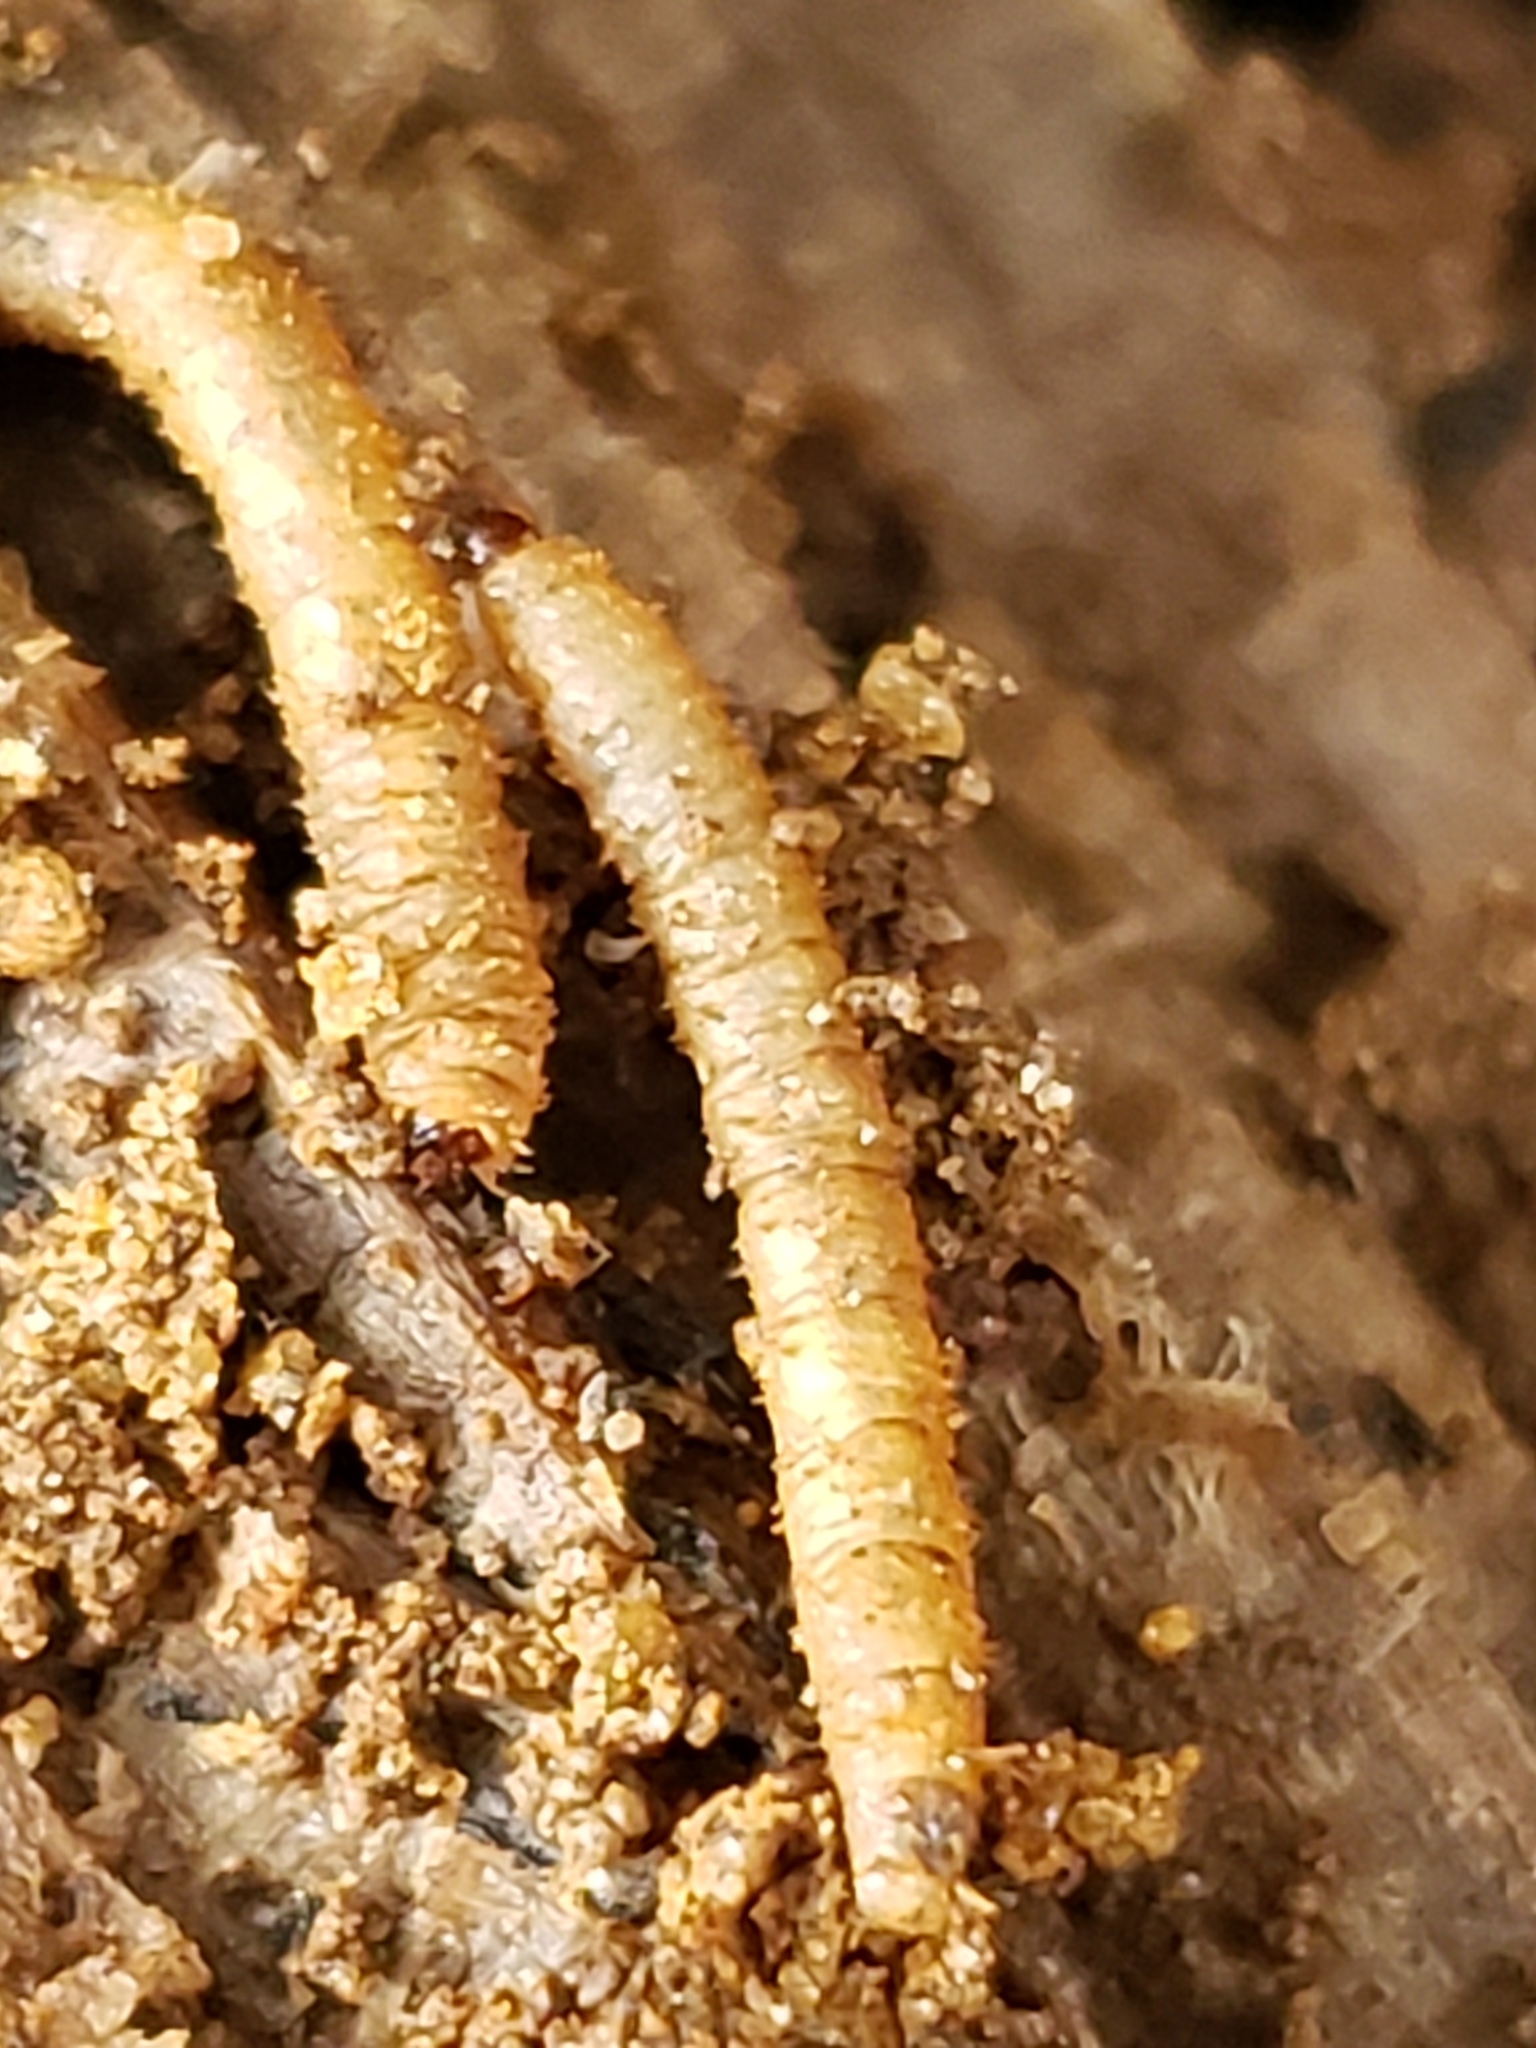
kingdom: Animalia
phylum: Arthropoda
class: Insecta
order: Diptera
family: Bibionidae
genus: Bibio
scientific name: Bibio
